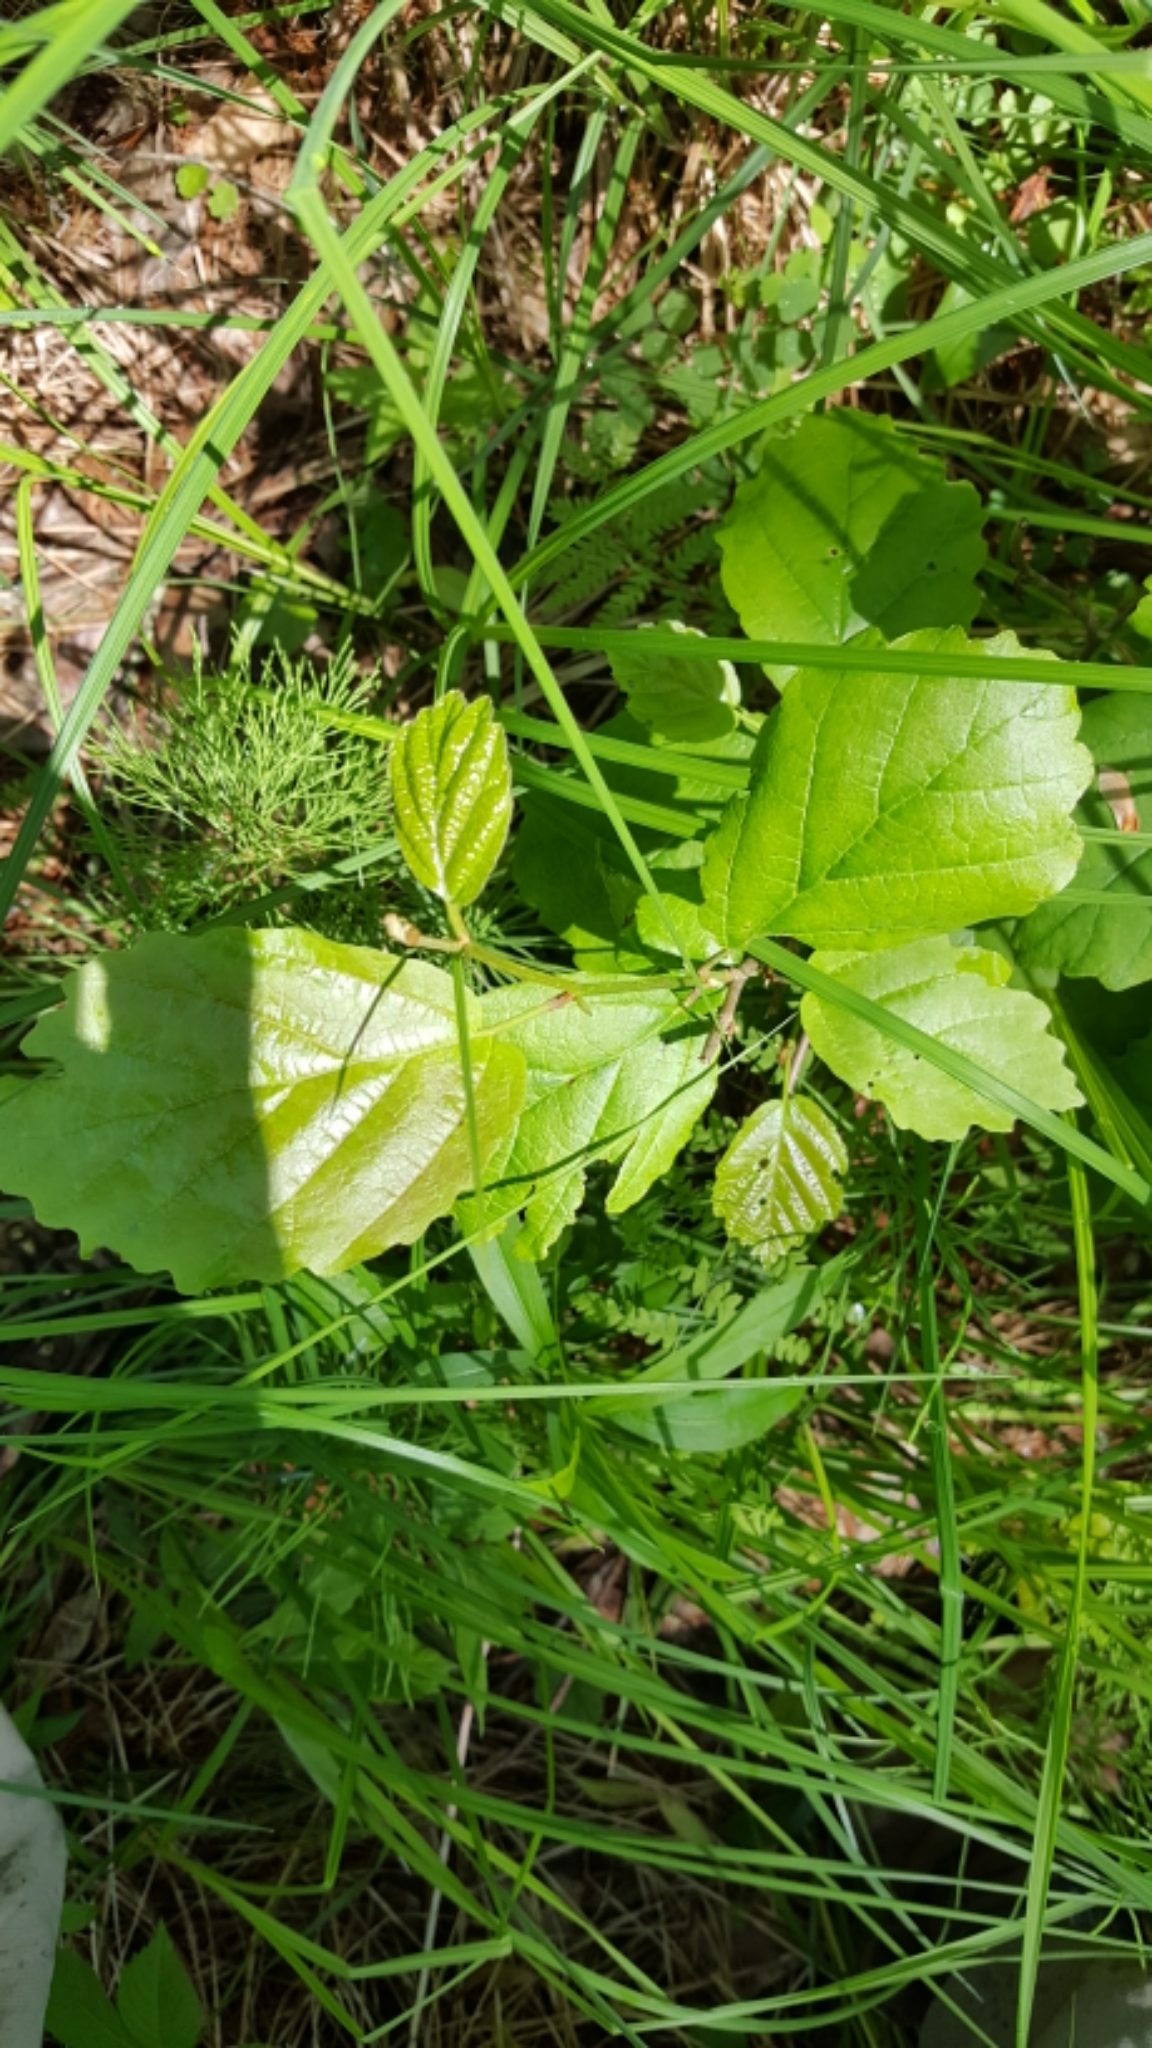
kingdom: Plantae
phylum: Tracheophyta
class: Magnoliopsida
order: Saxifragales
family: Hamamelidaceae
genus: Hamamelis
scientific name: Hamamelis virginiana
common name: Witch-hazel
